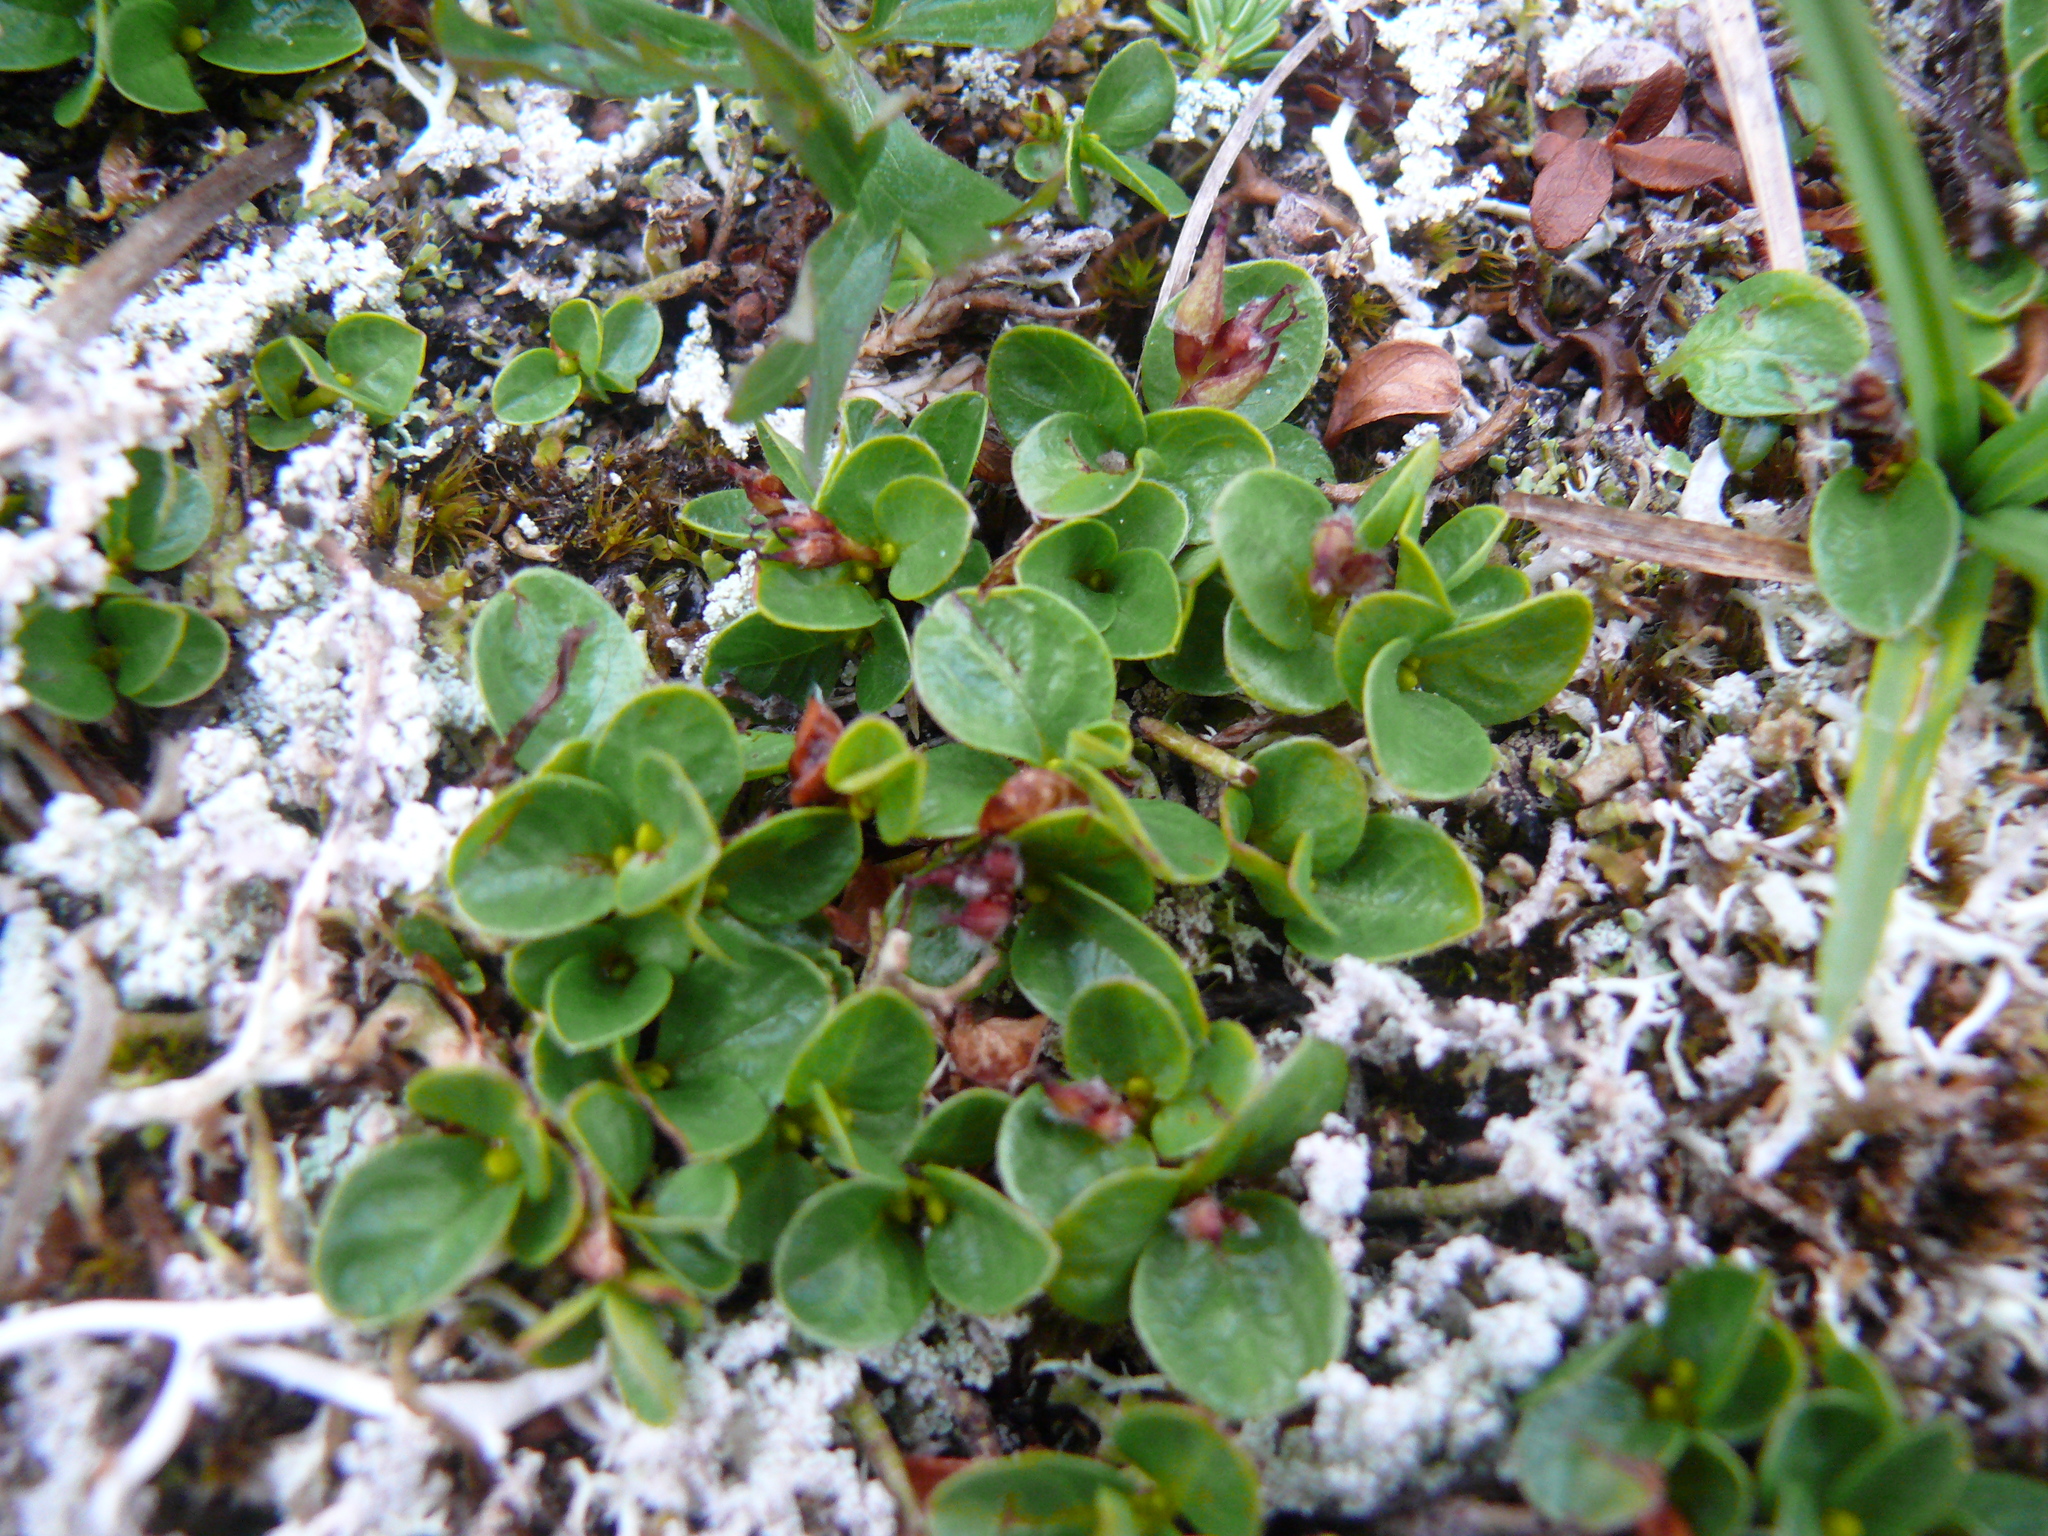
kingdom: Plantae
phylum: Tracheophyta
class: Magnoliopsida
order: Malpighiales
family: Salicaceae
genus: Salix
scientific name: Salix rotundifolia
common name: Least willow
